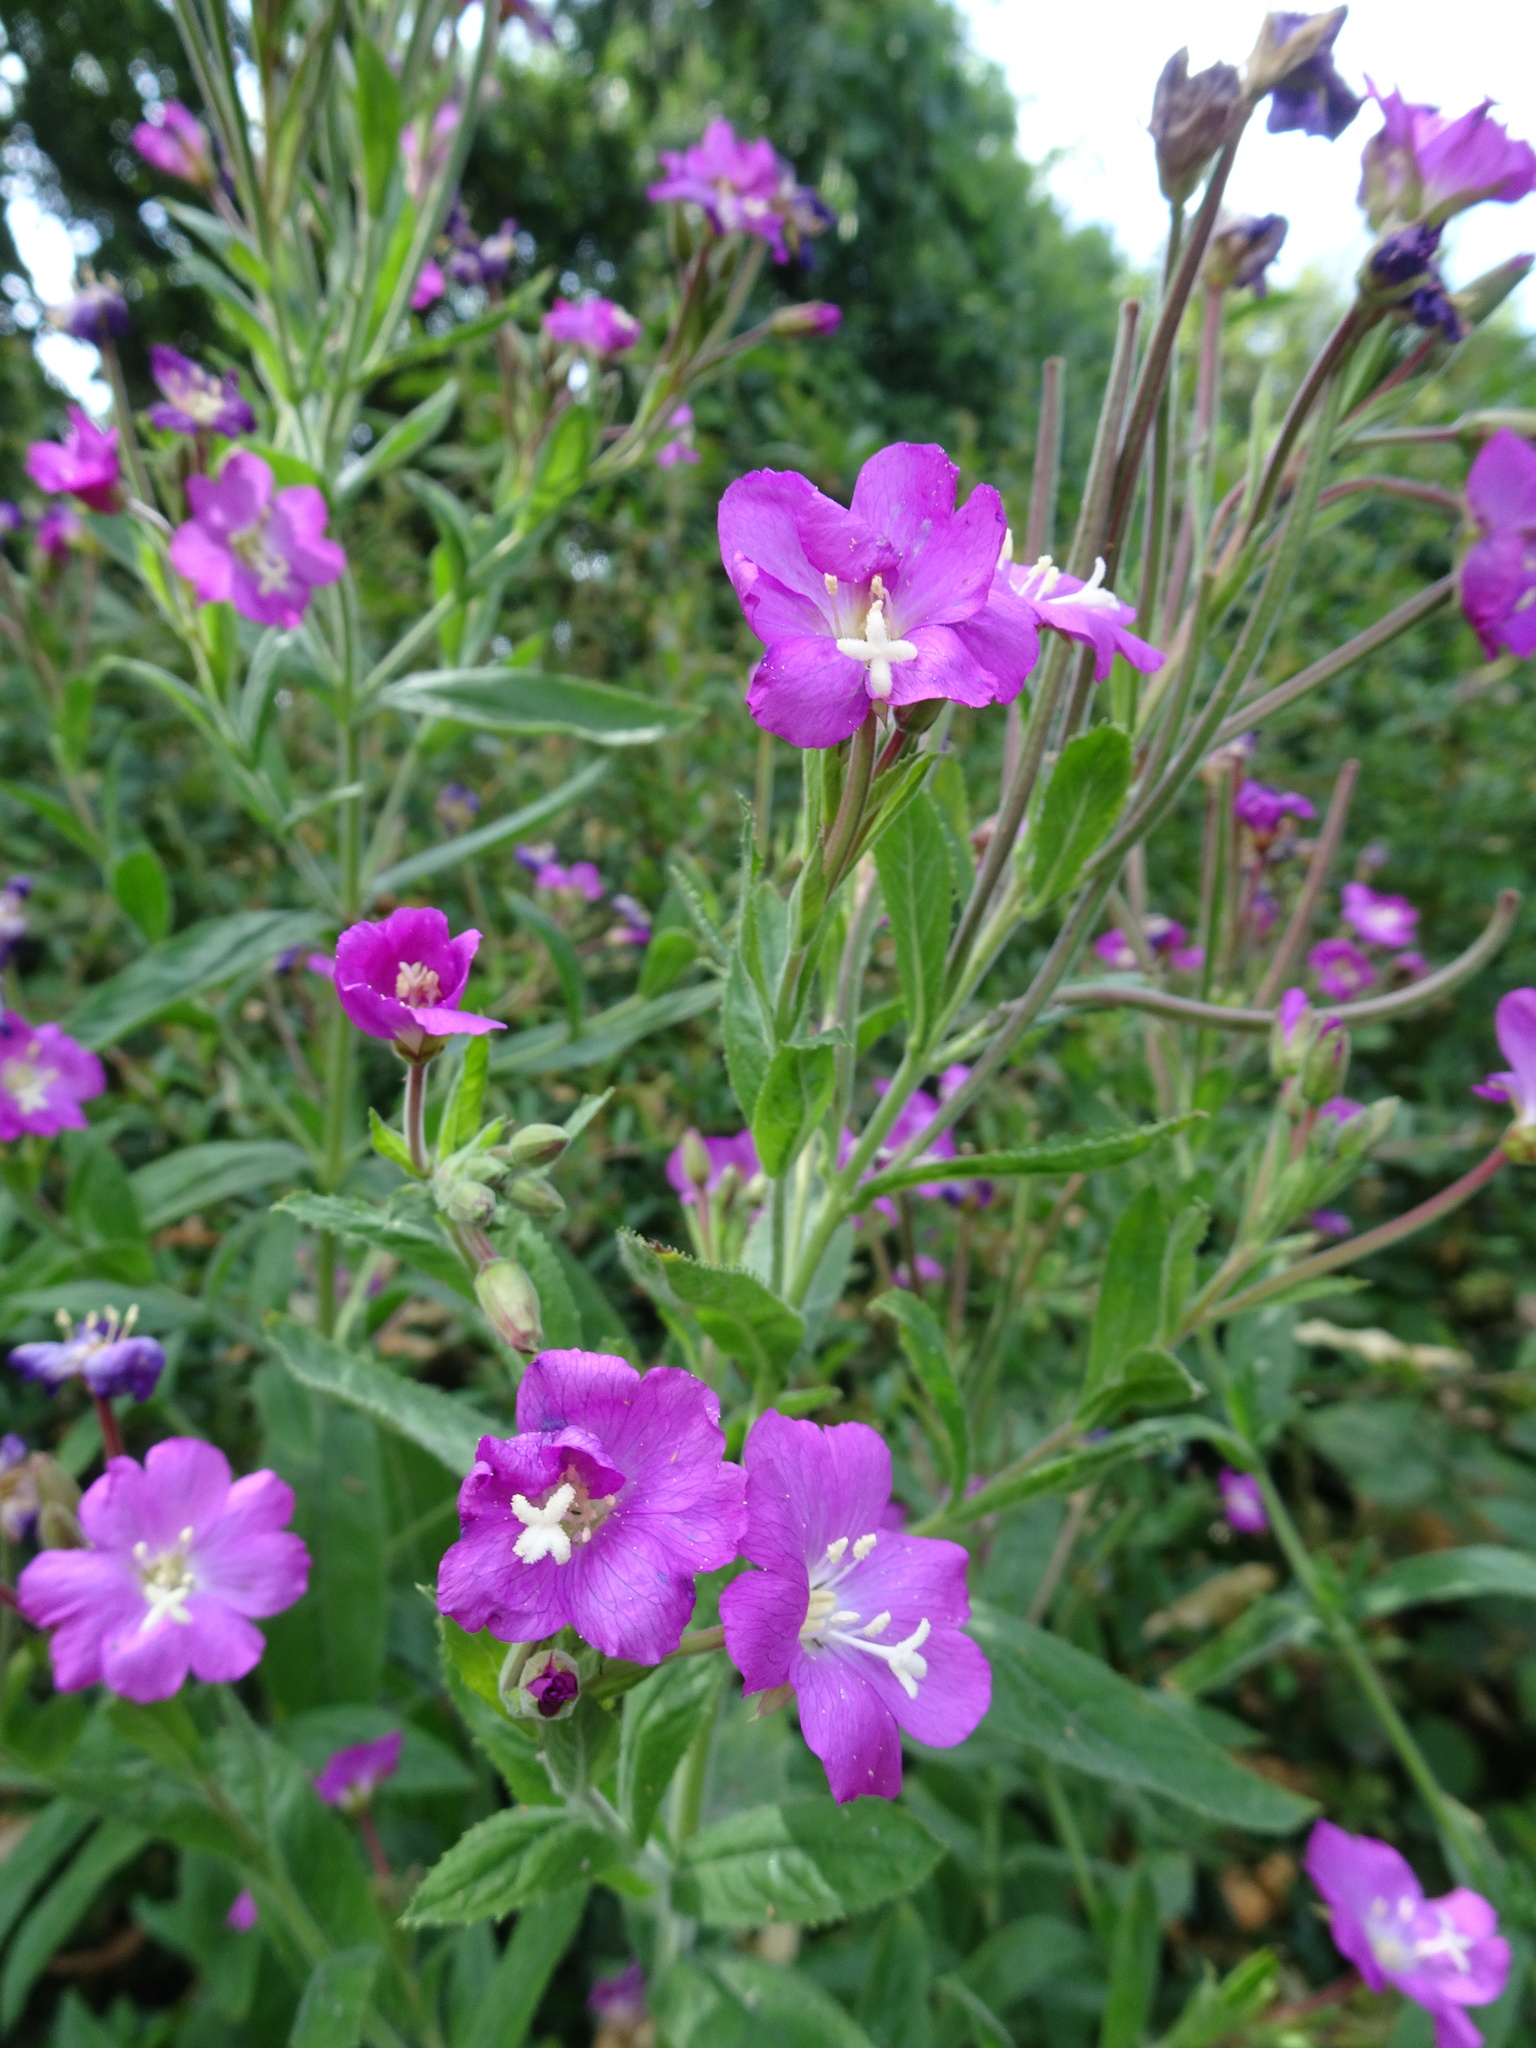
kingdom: Plantae
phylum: Tracheophyta
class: Magnoliopsida
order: Myrtales
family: Onagraceae
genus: Epilobium
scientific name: Epilobium hirsutum
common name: Great willowherb
